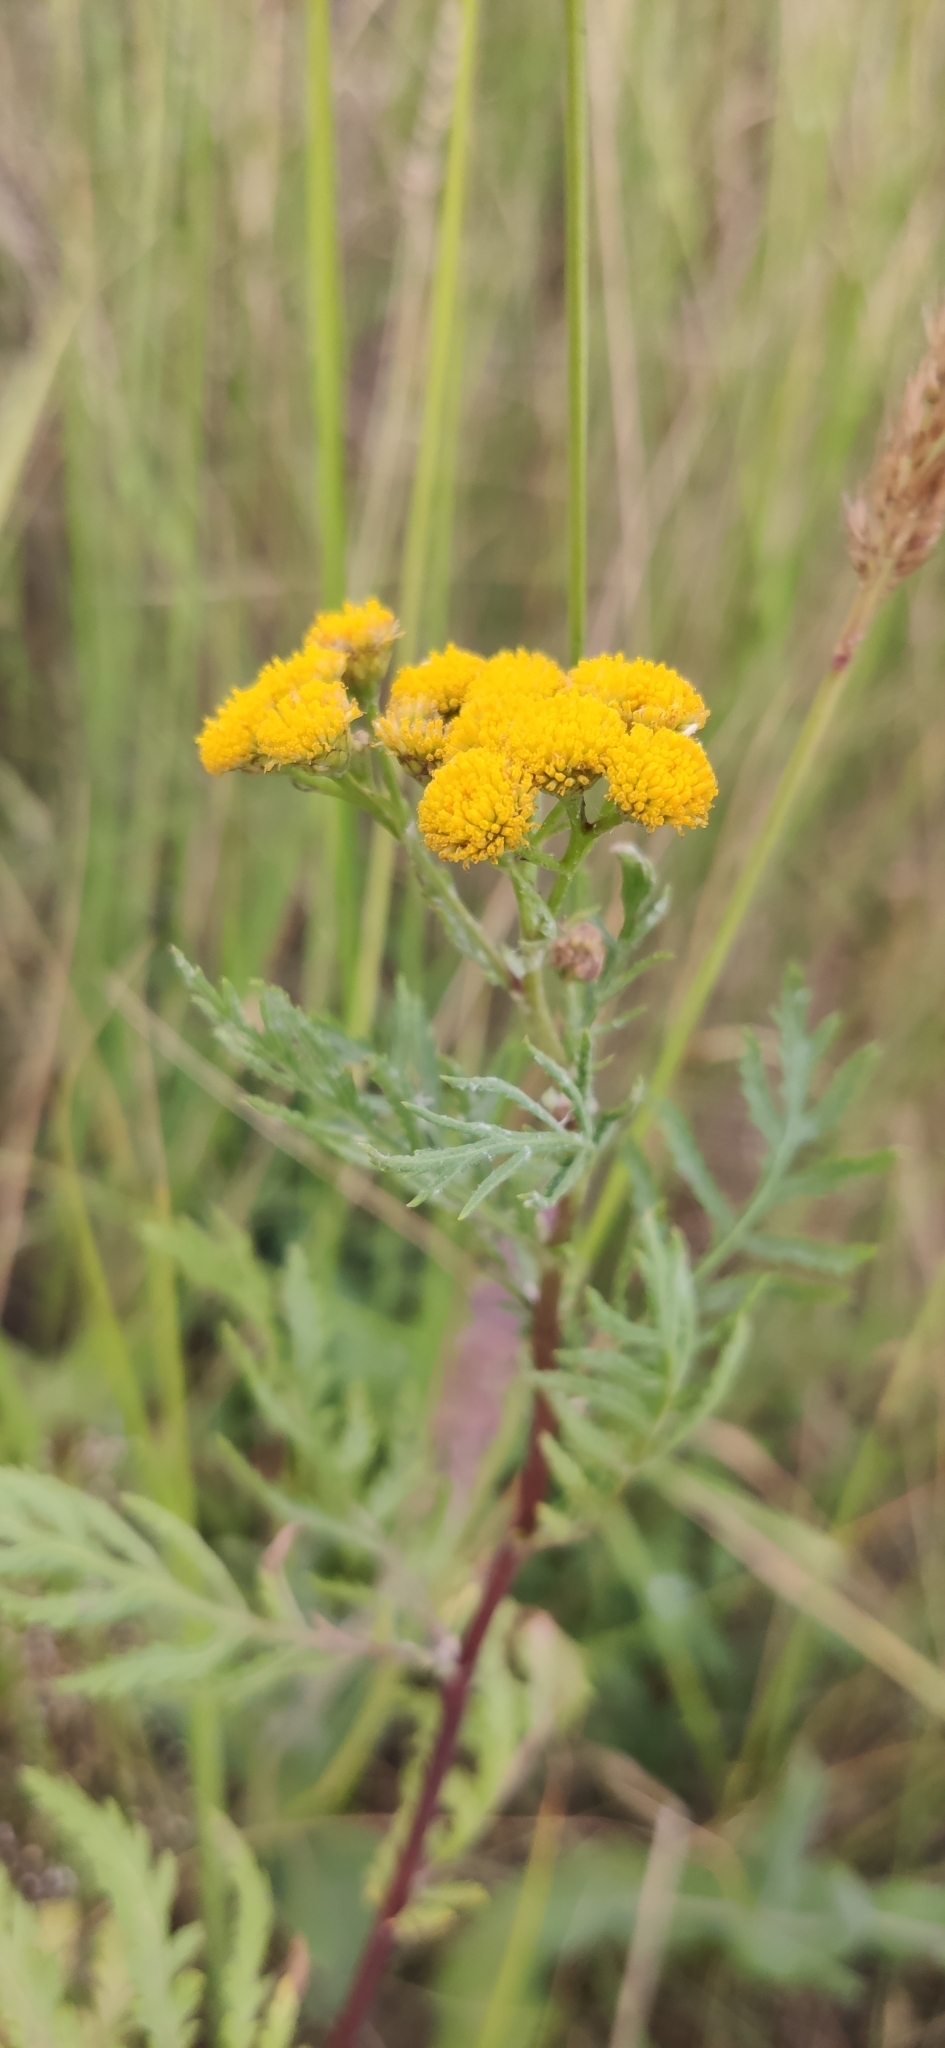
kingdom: Plantae
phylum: Tracheophyta
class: Magnoliopsida
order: Asterales
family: Asteraceae
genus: Tanacetum
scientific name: Tanacetum vulgare
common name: Common tansy
